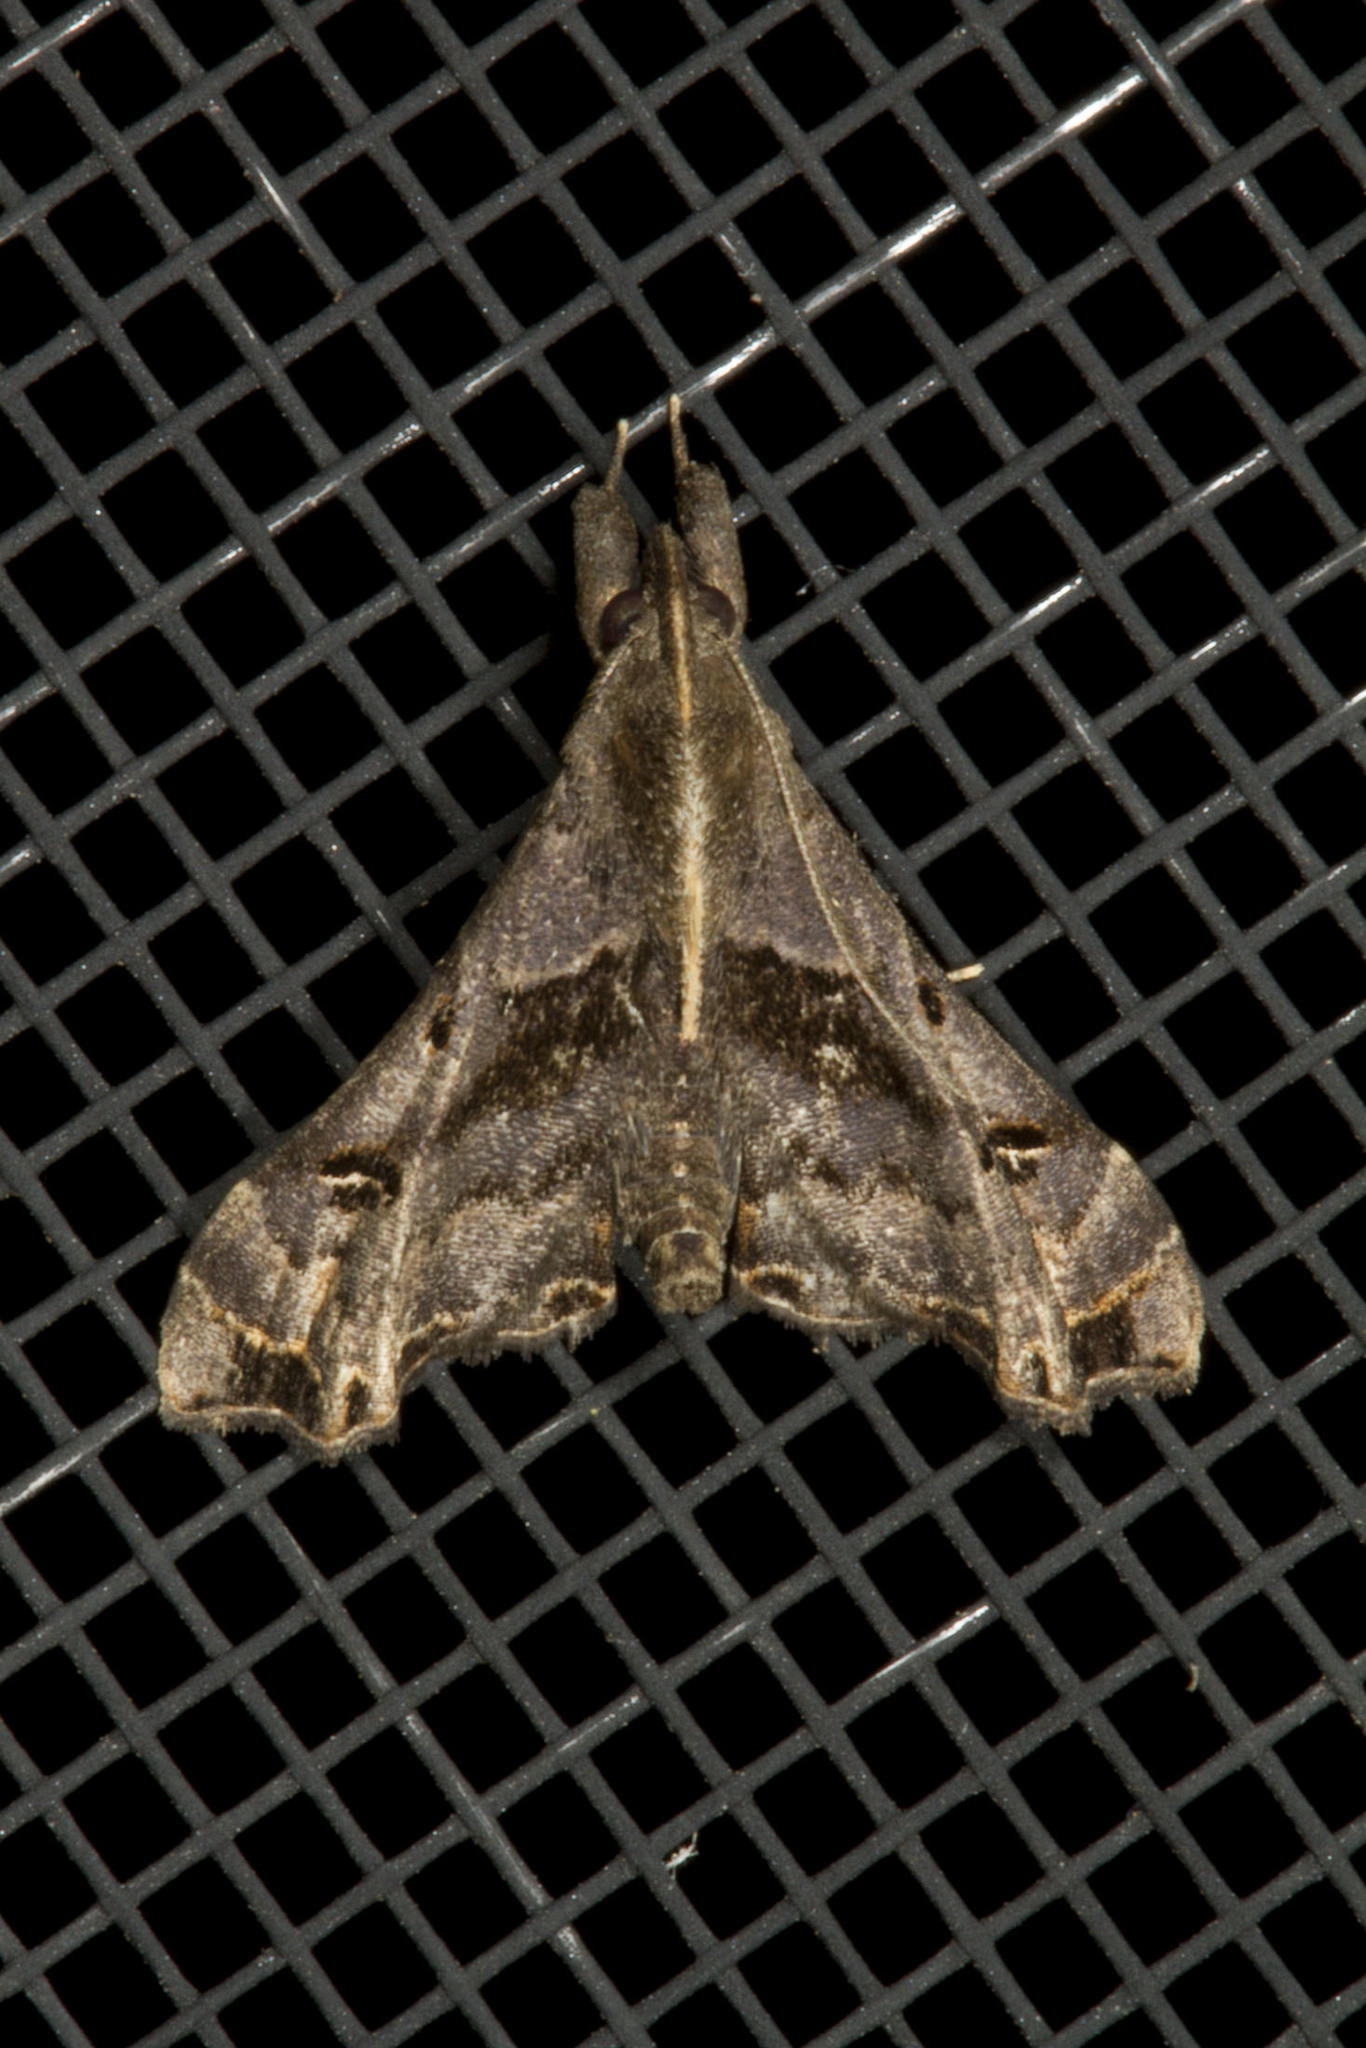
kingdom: Animalia
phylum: Arthropoda
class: Insecta
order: Lepidoptera
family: Erebidae
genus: Palthis
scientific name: Palthis asopialis
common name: Faint-spotted palthis moth
